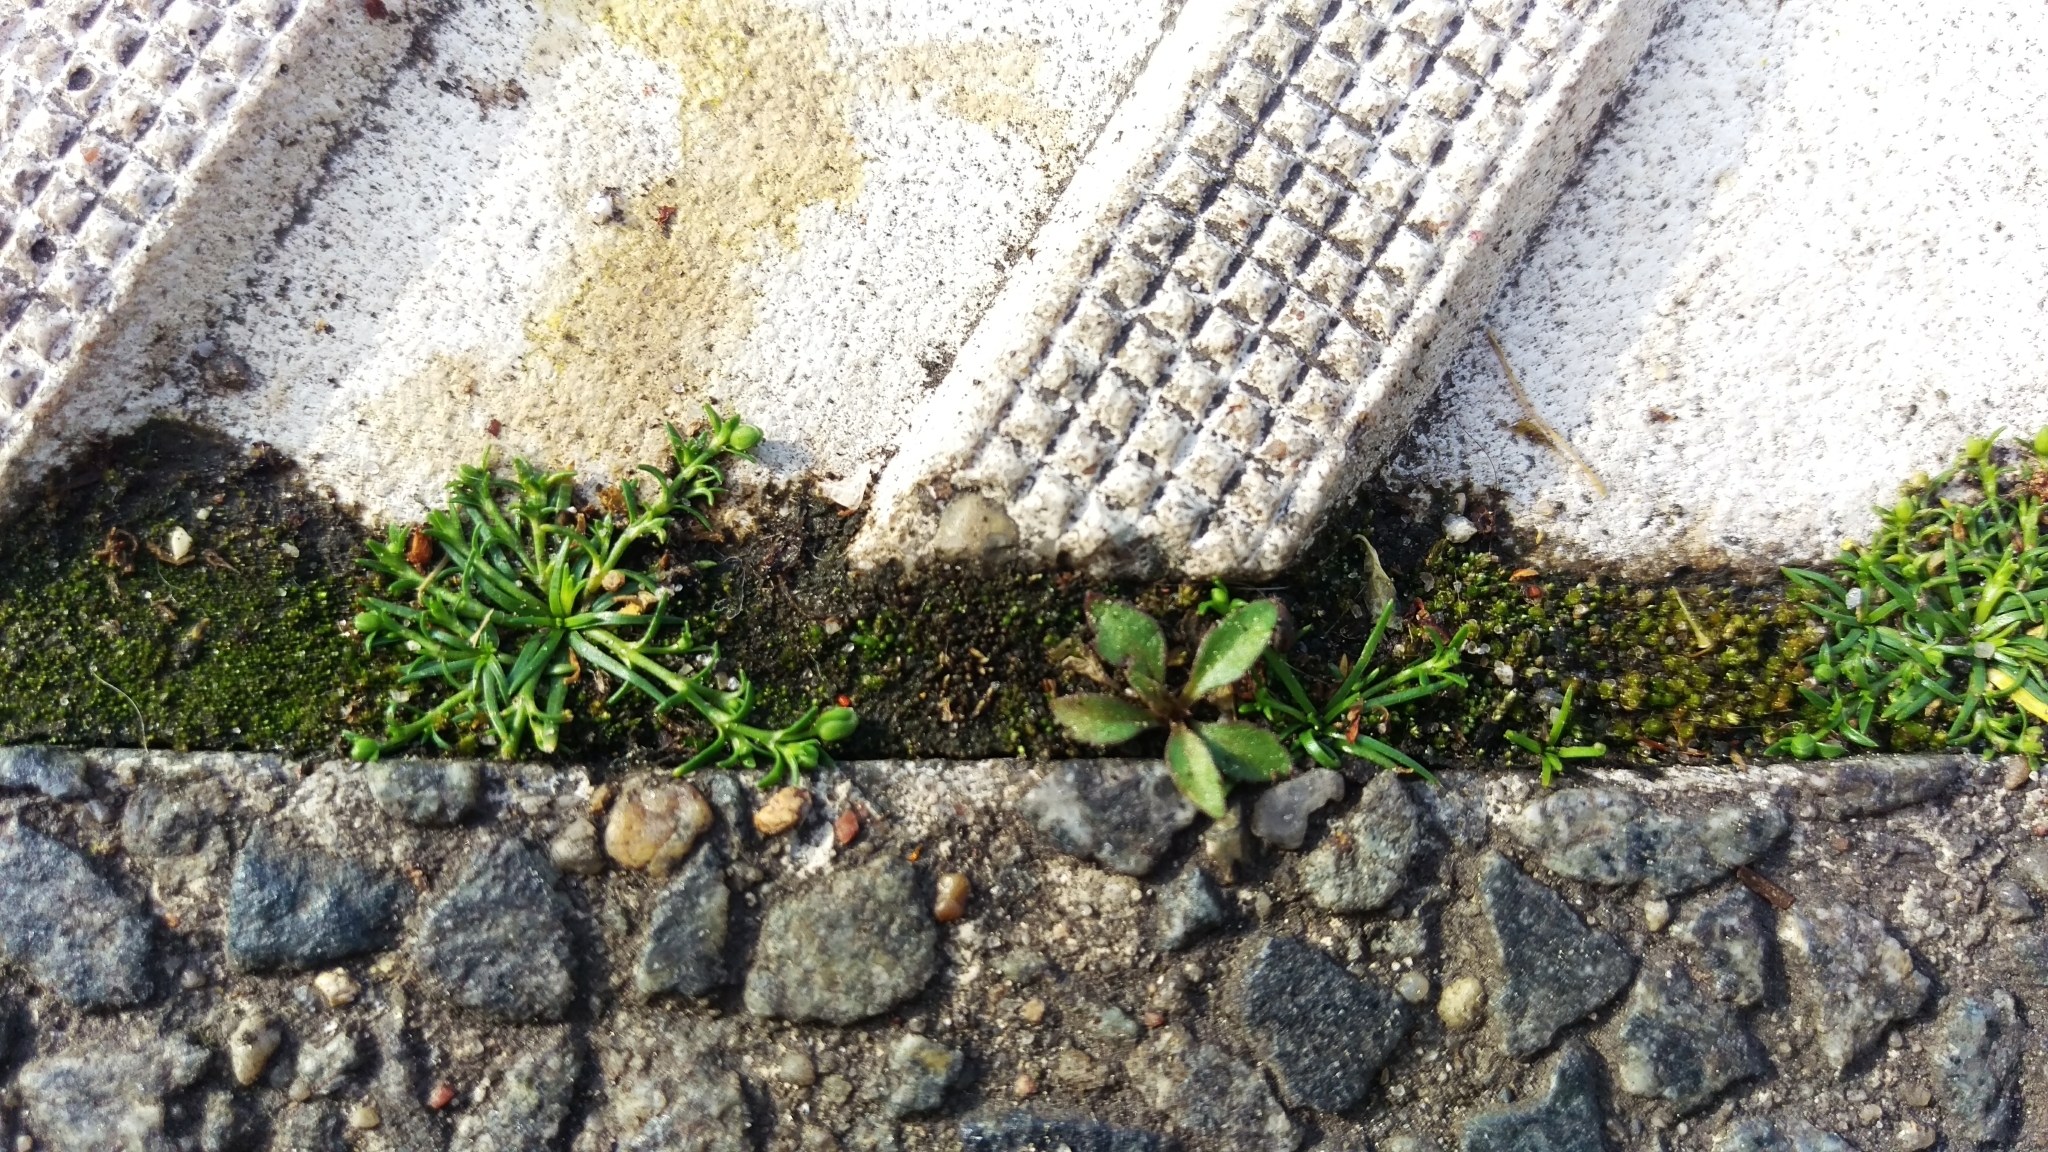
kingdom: Plantae
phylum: Tracheophyta
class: Magnoliopsida
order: Caryophyllales
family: Caryophyllaceae
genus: Sagina
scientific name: Sagina procumbens
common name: Procumbent pearlwort
